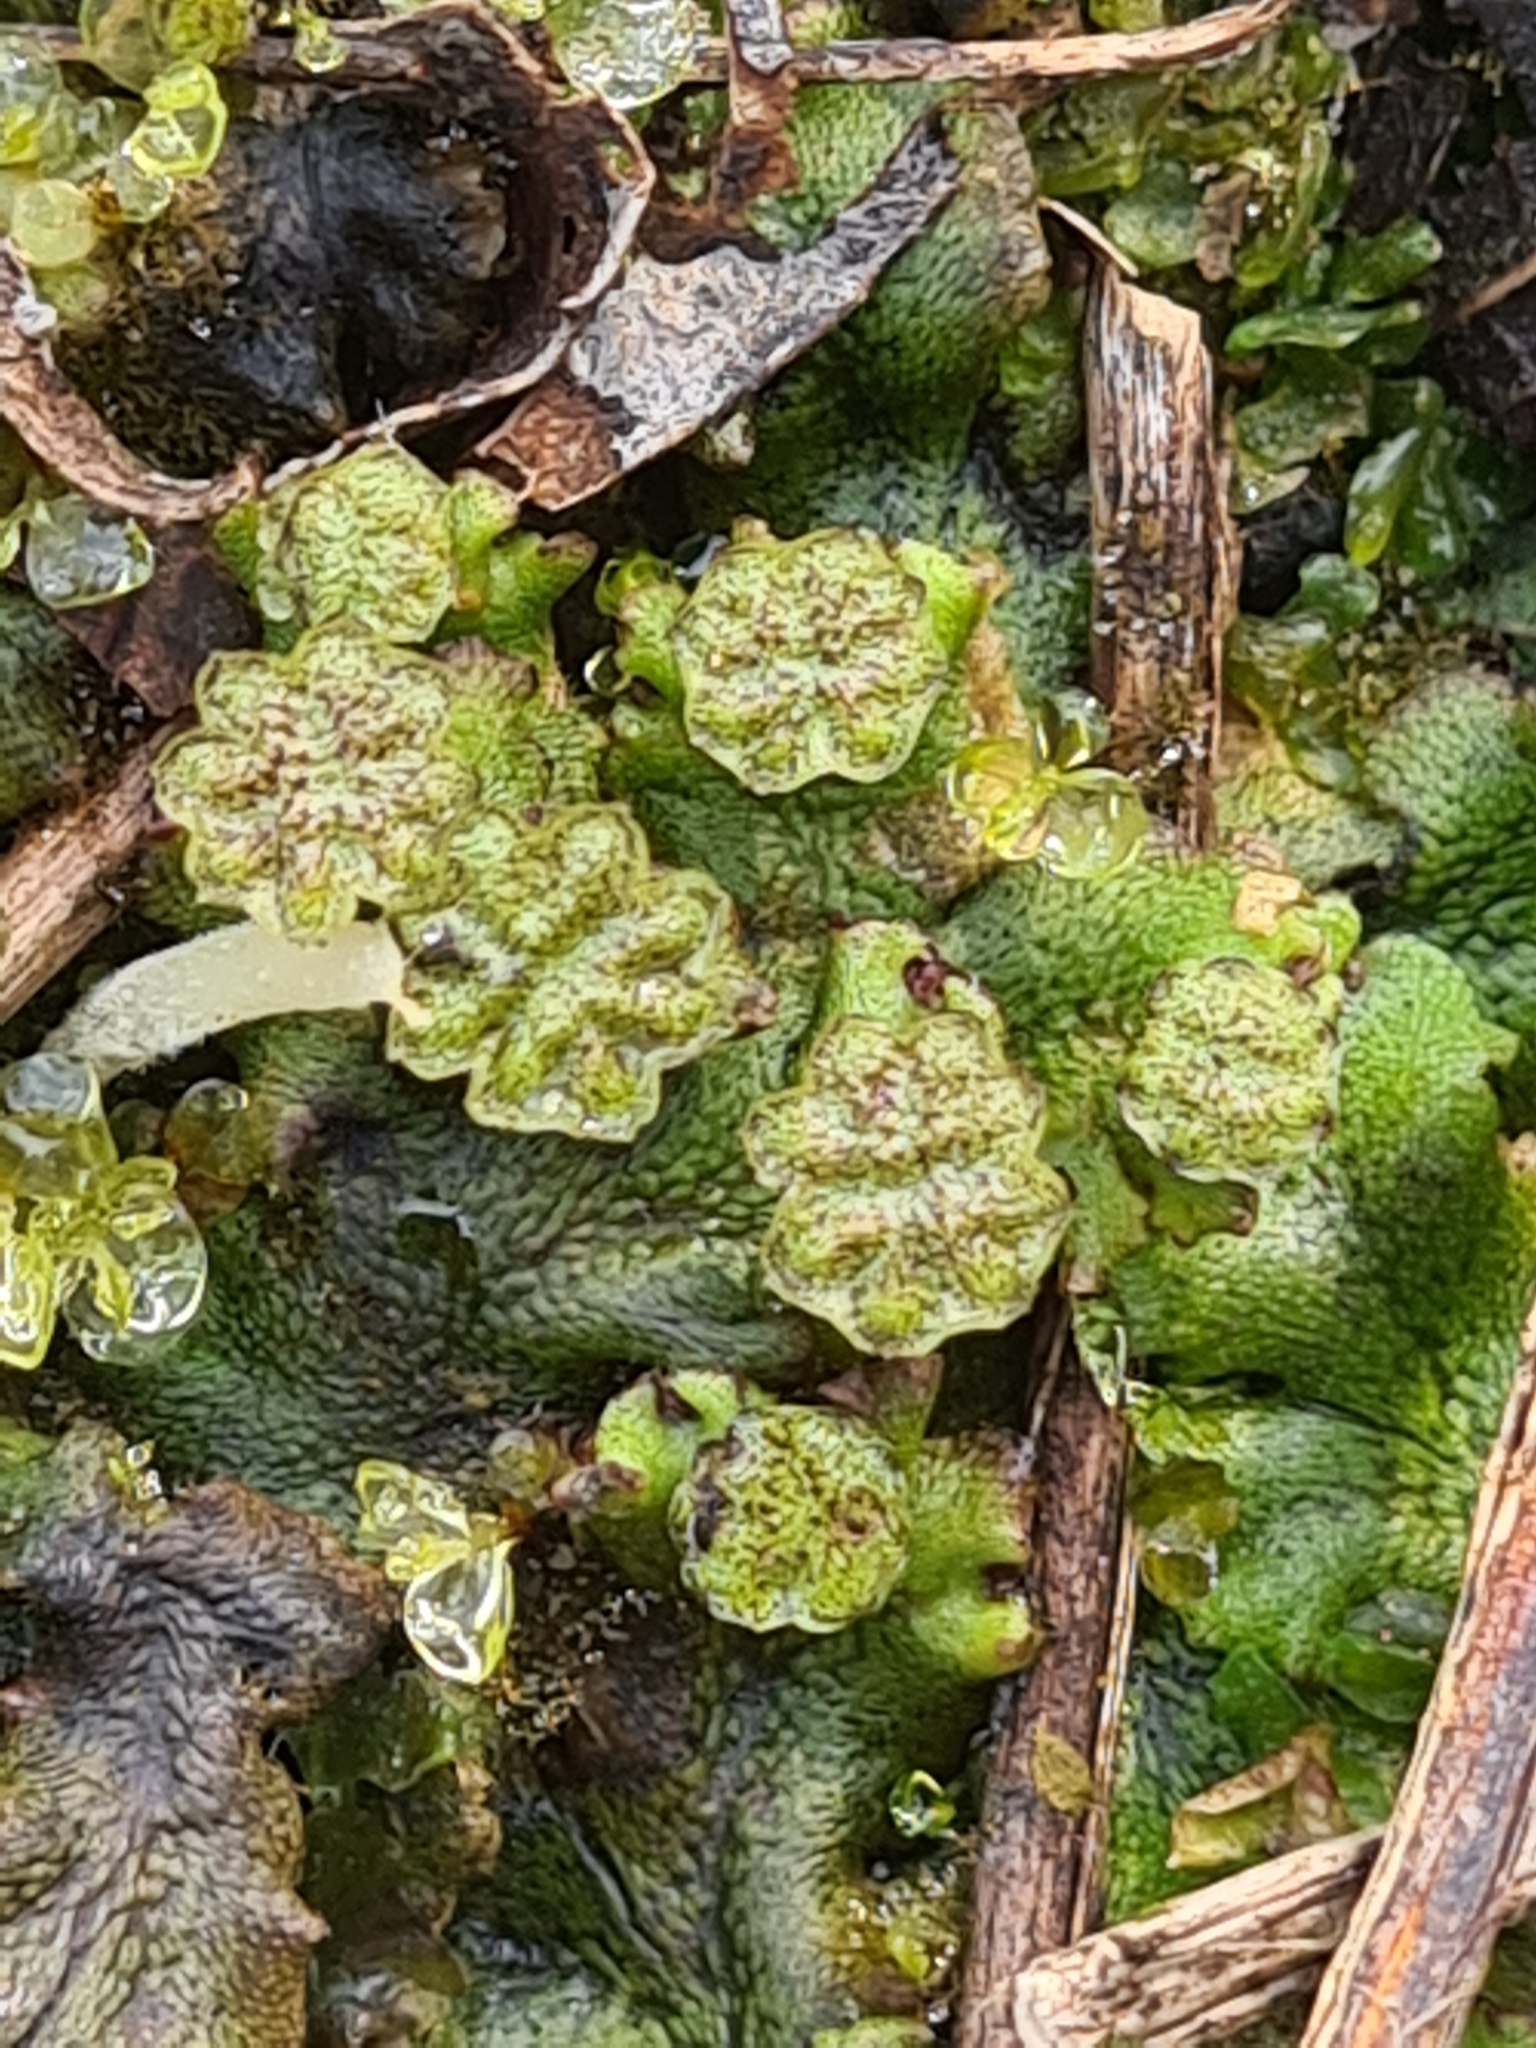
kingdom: Plantae
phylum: Marchantiophyta
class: Marchantiopsida
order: Marchantiales
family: Marchantiaceae
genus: Marchantia
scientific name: Marchantia polymorpha
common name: Common liverwort
